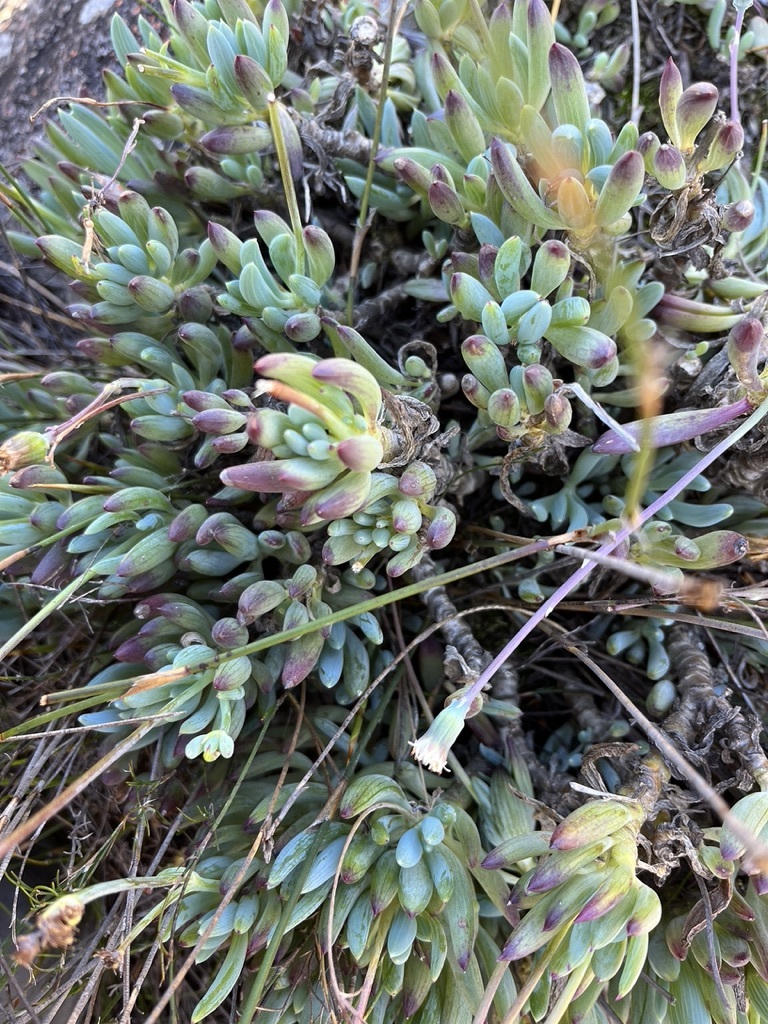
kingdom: Plantae
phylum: Tracheophyta
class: Magnoliopsida
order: Asterales
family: Asteraceae
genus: Curio
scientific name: Curio crassulifolius
